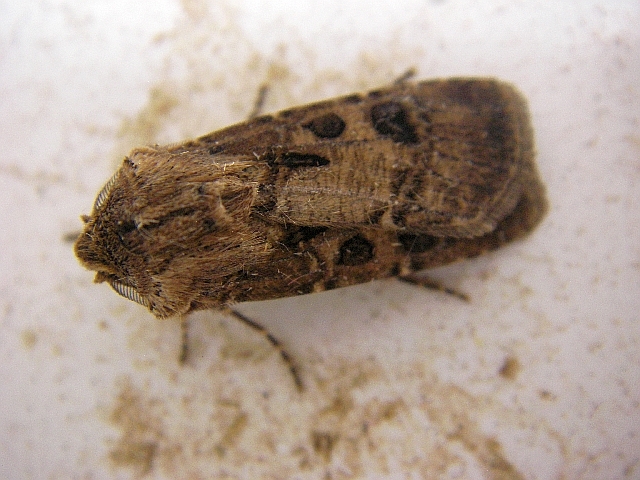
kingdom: Animalia
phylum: Arthropoda
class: Insecta
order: Lepidoptera
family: Noctuidae
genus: Agrotis
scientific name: Agrotis clavis
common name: Heart and club
